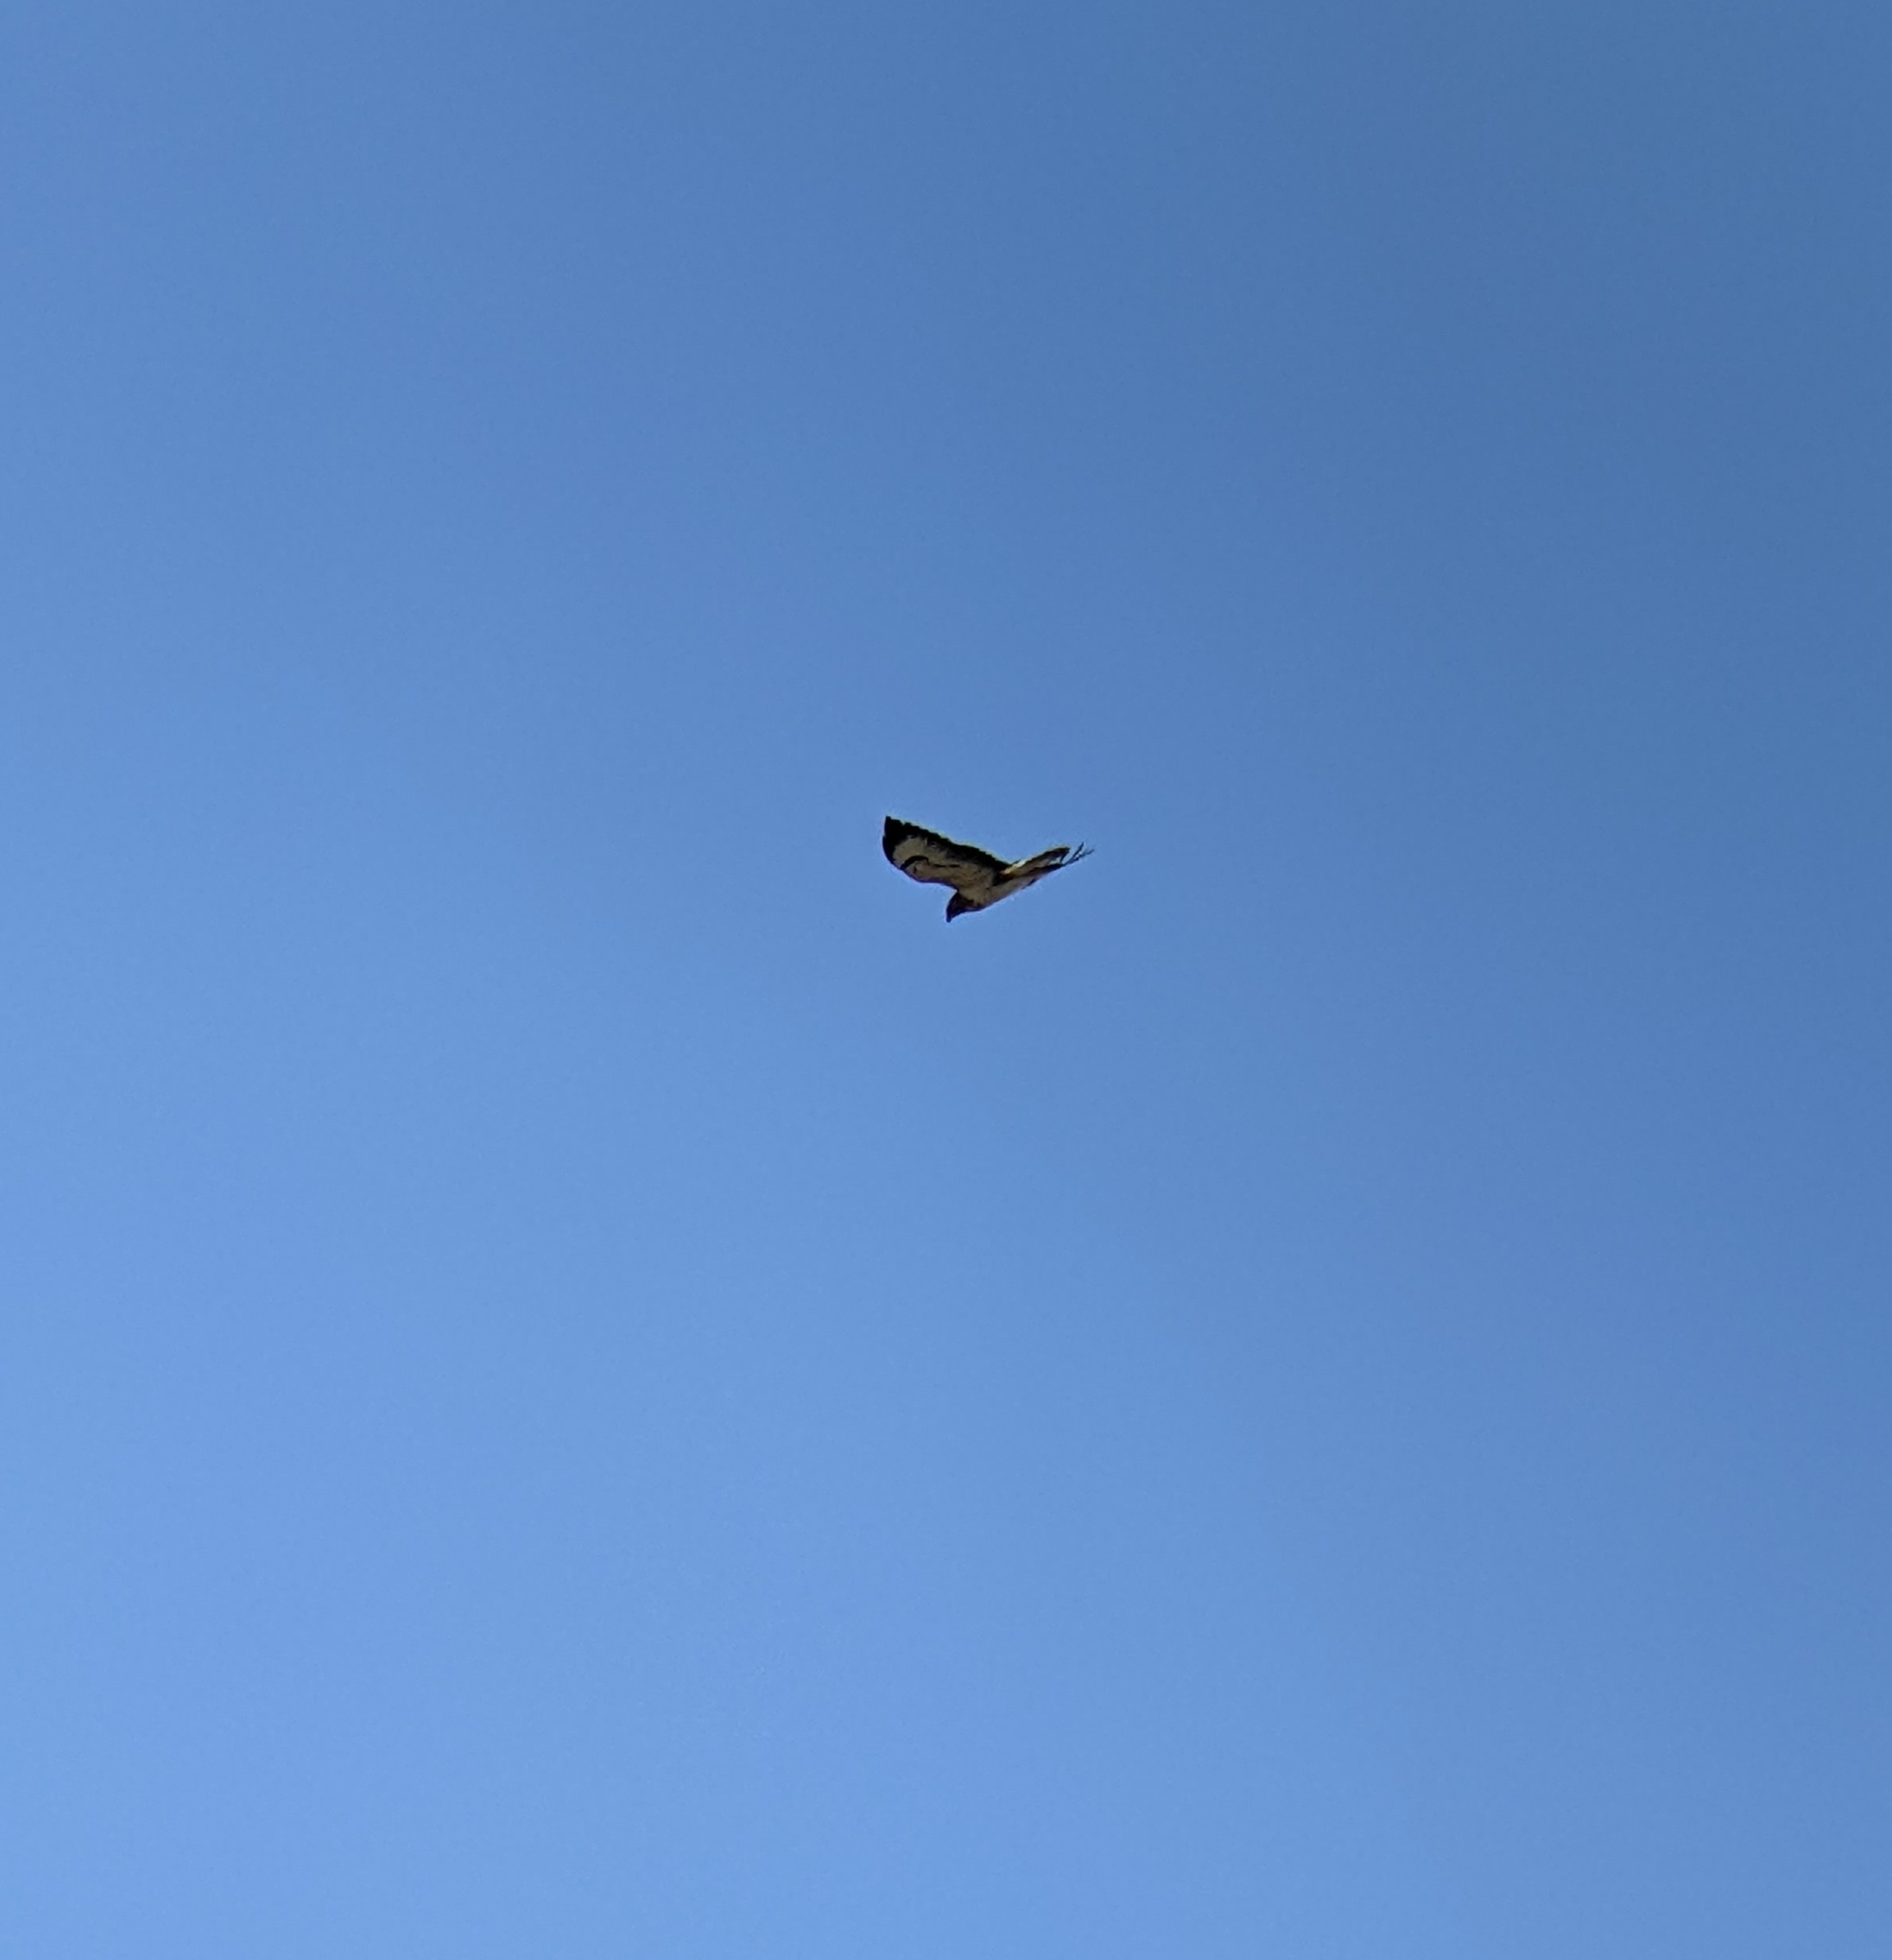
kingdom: Animalia
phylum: Chordata
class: Aves
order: Accipitriformes
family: Accipitridae
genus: Buteo
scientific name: Buteo buteo
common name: Common buzzard
